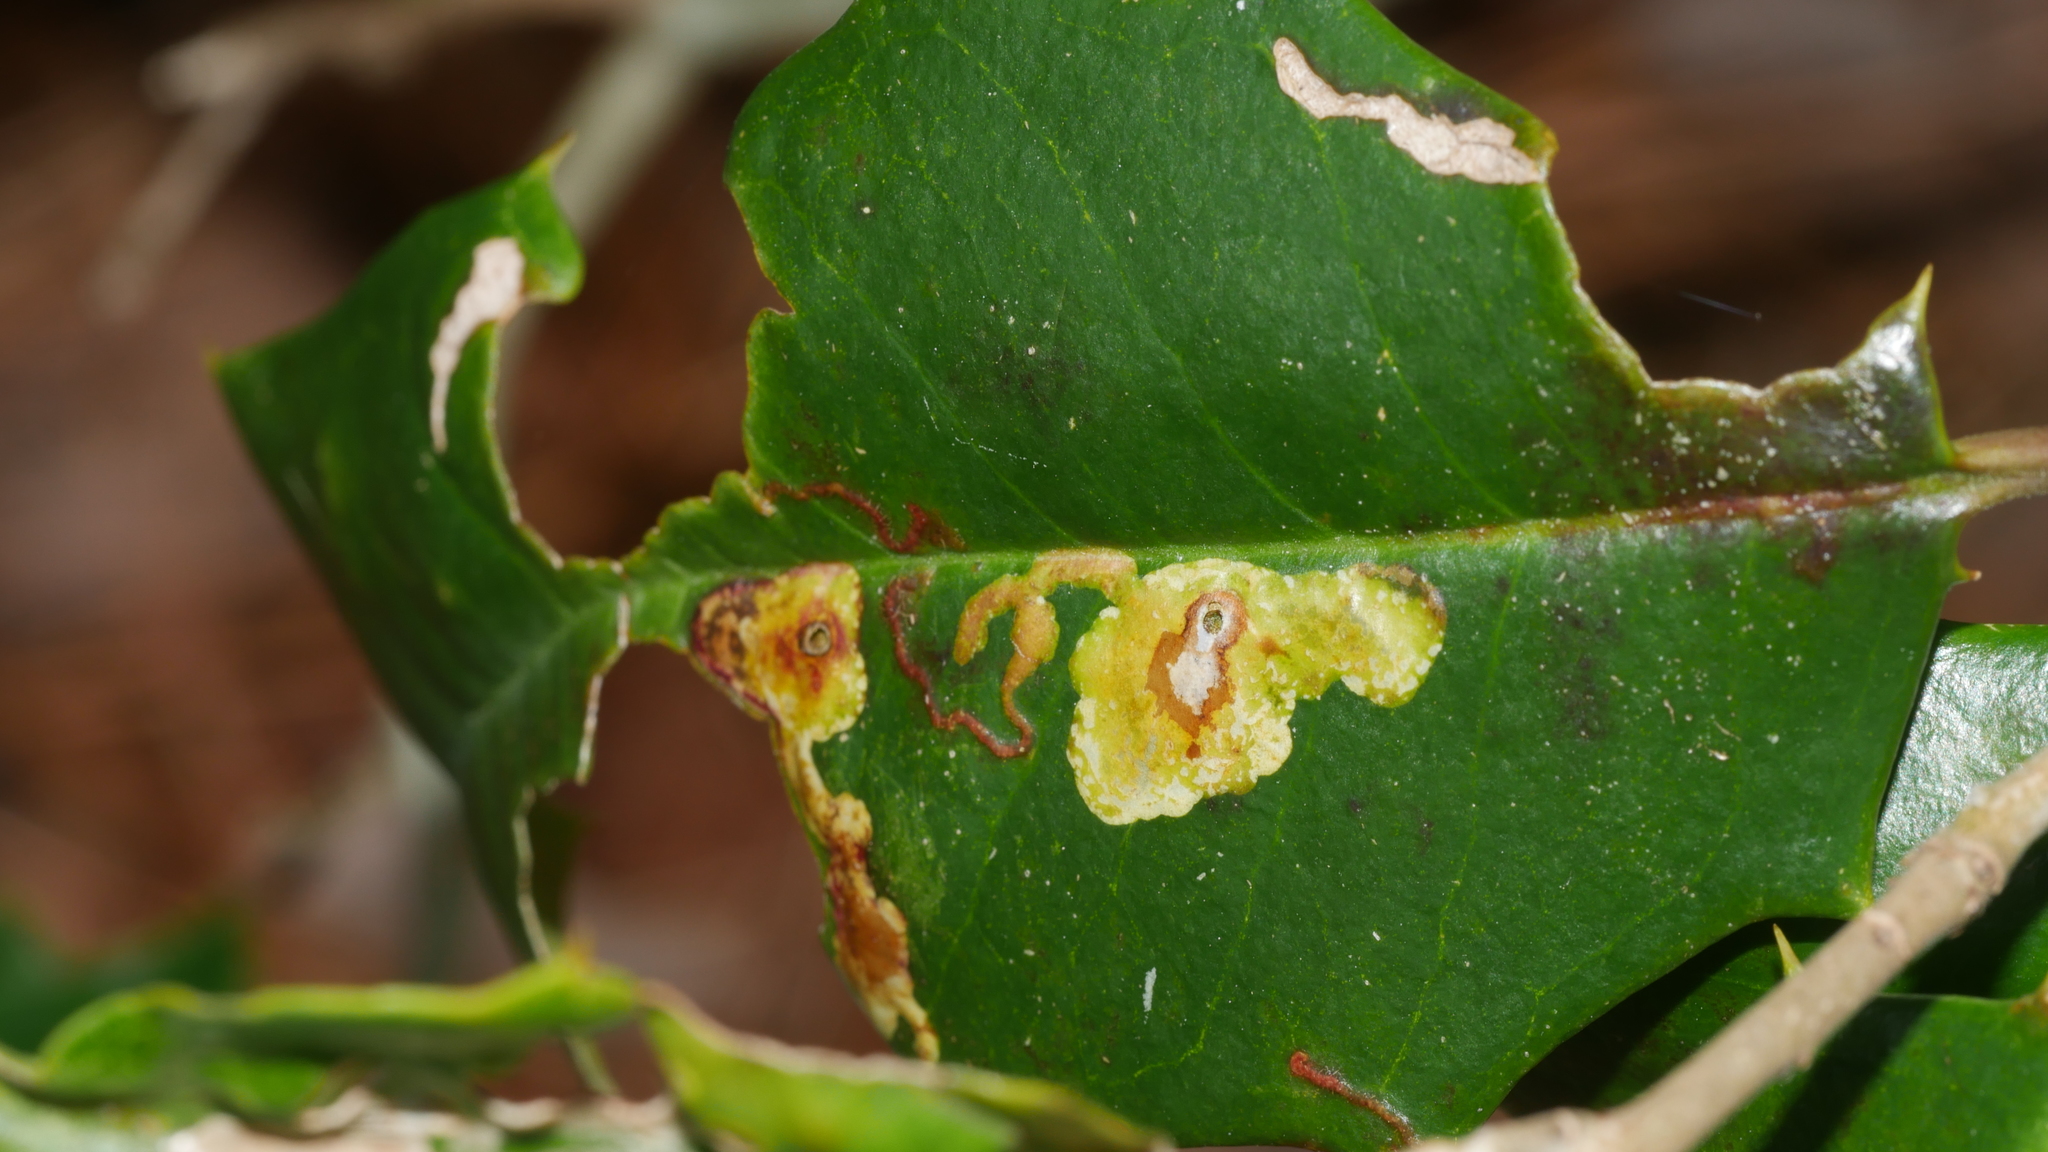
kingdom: Animalia
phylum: Arthropoda
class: Insecta
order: Diptera
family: Agromyzidae
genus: Phytomyza
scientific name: Phytomyza ilicicola
